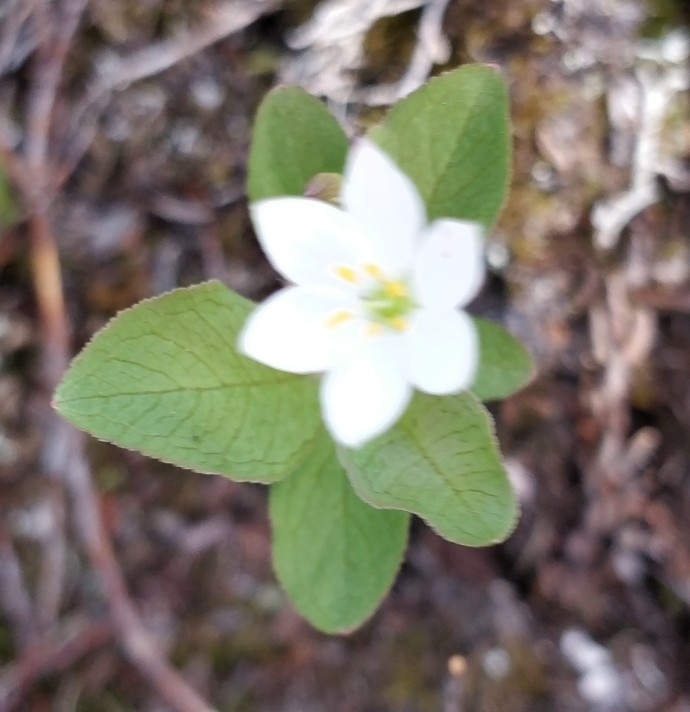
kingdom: Plantae
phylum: Tracheophyta
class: Magnoliopsida
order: Ericales
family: Primulaceae
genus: Lysimachia
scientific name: Lysimachia europaea
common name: Arctic starflower
